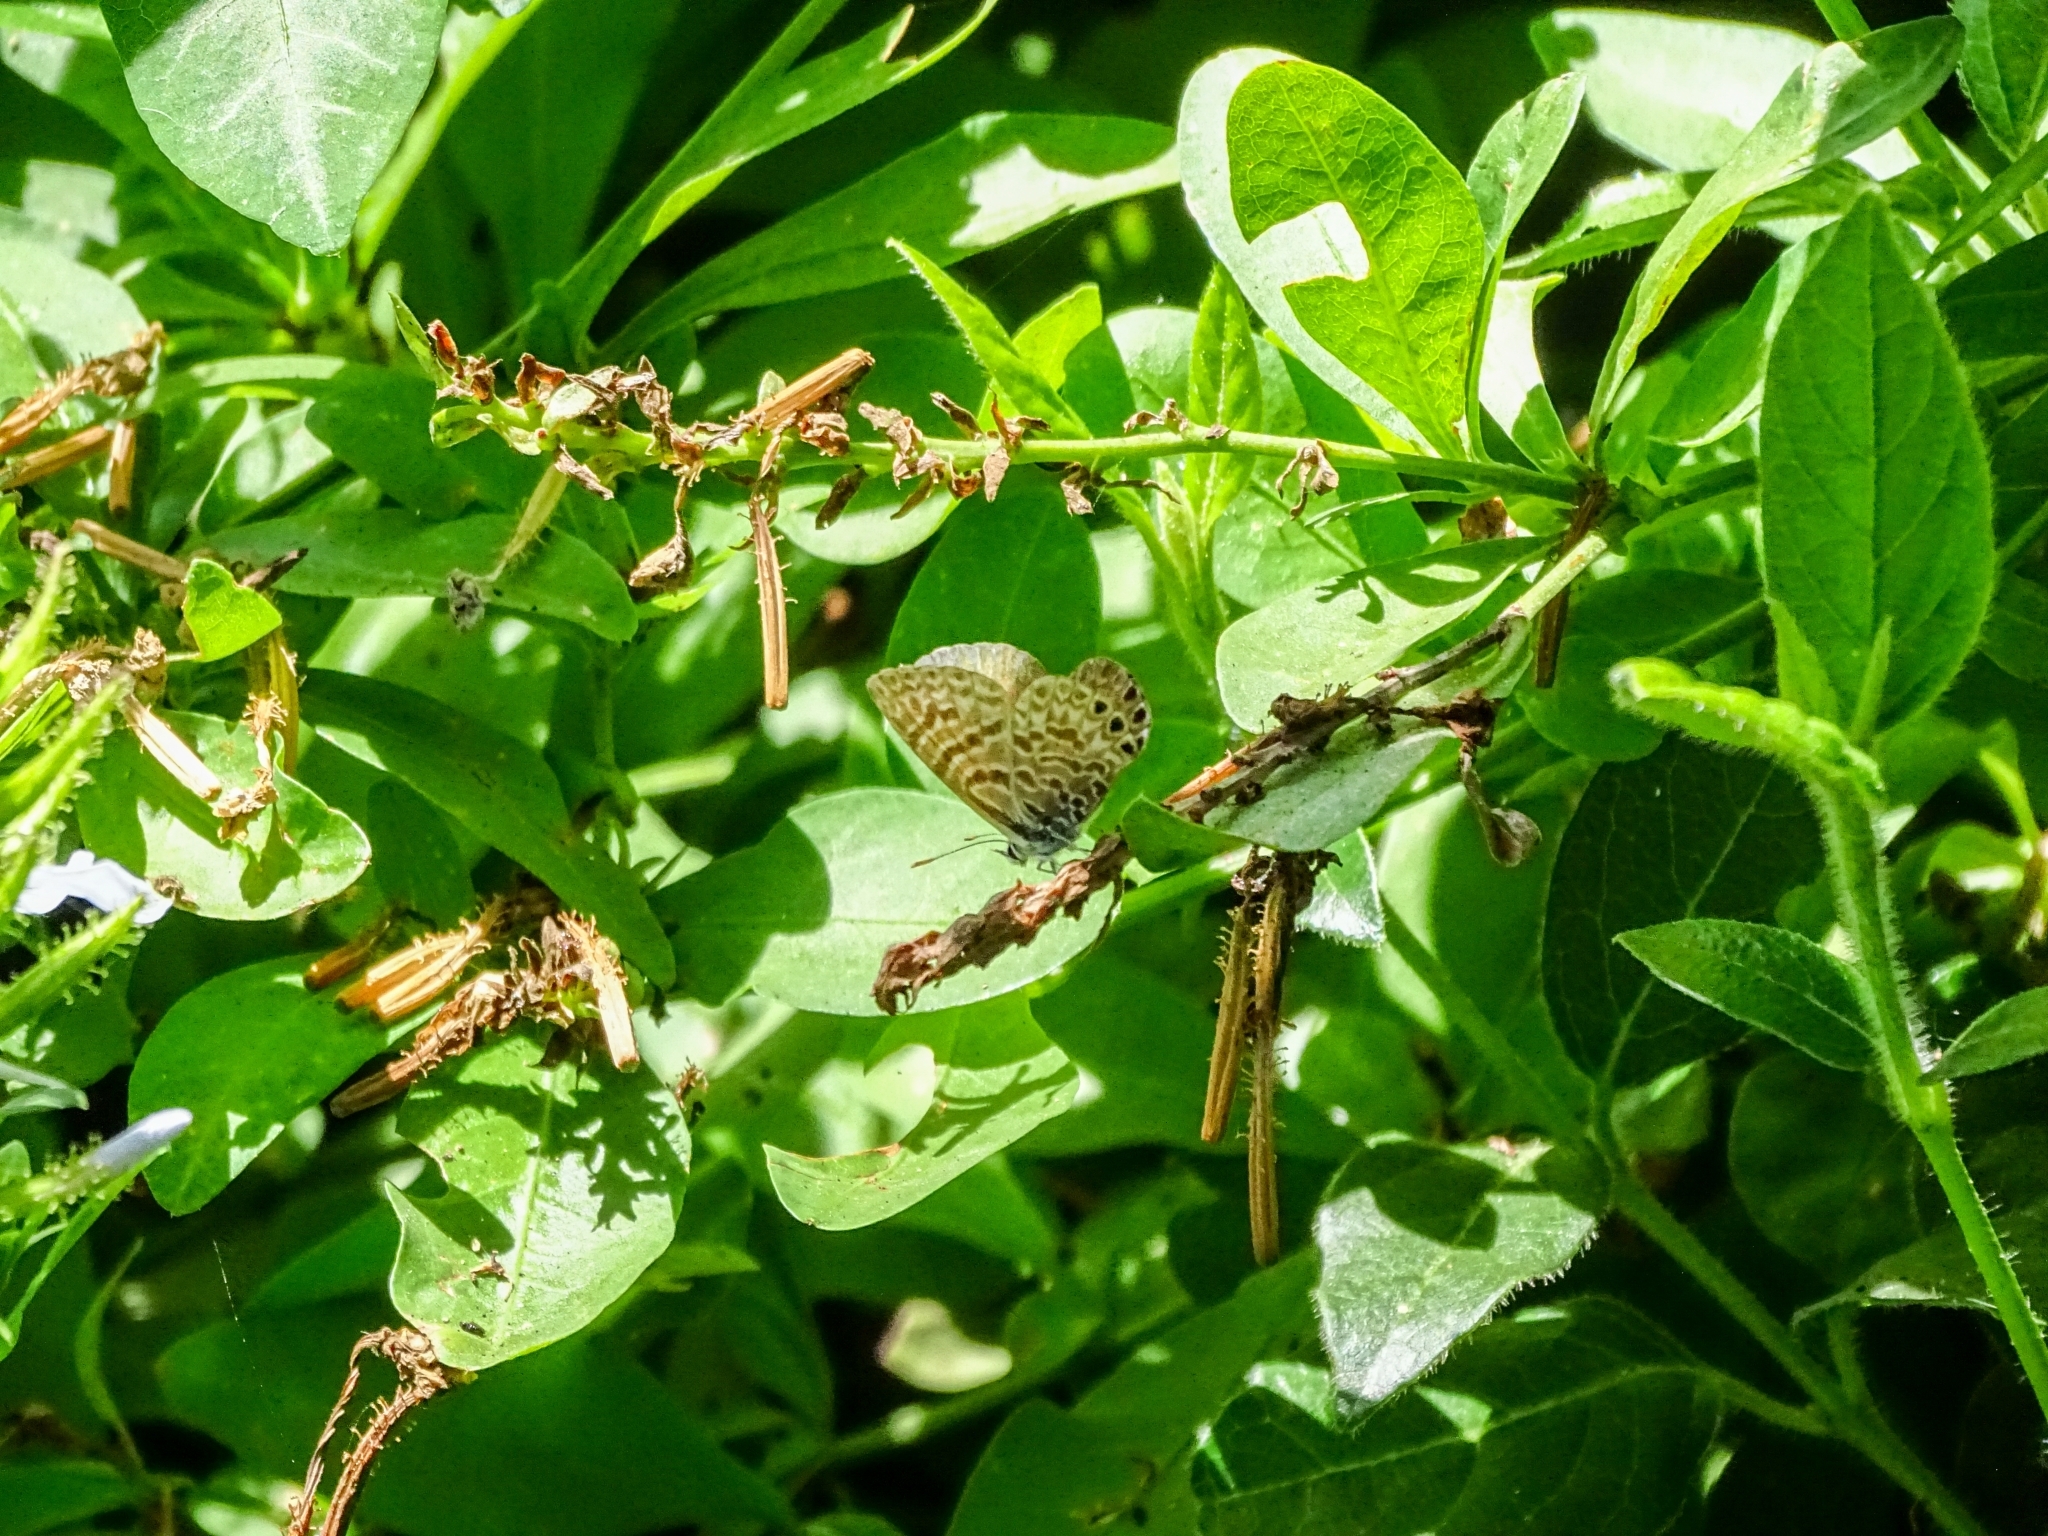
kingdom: Animalia
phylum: Arthropoda
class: Insecta
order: Lepidoptera
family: Lycaenidae
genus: Leptotes
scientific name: Leptotes trigemmatus
